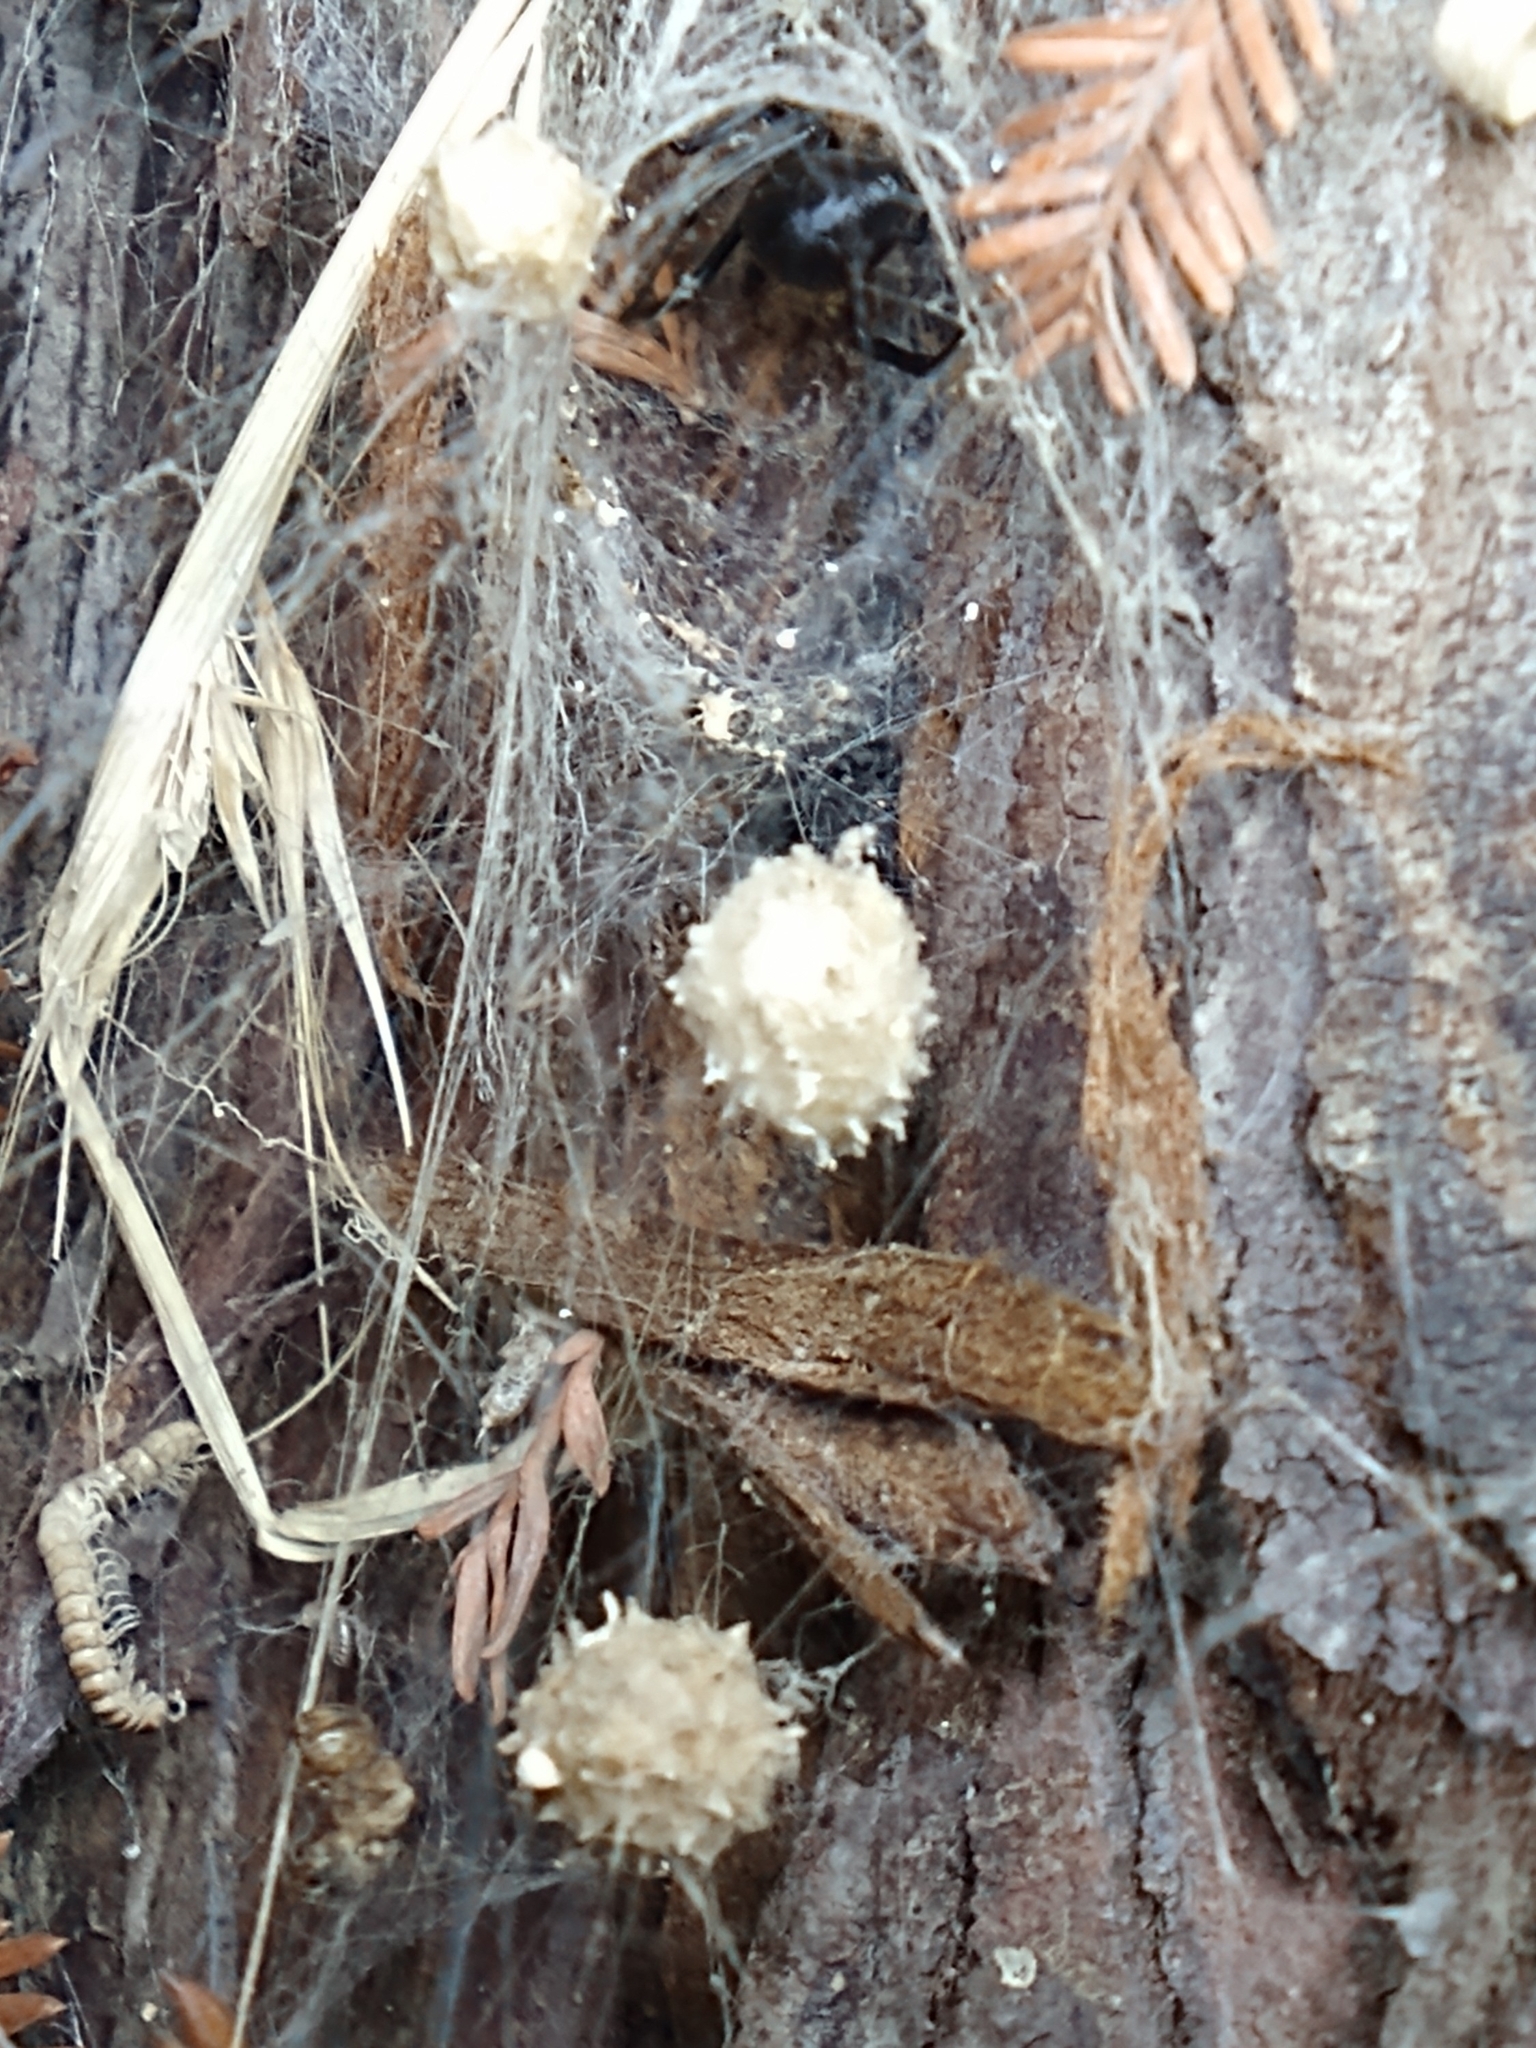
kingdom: Animalia
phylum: Arthropoda
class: Arachnida
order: Araneae
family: Theridiidae
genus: Latrodectus
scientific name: Latrodectus geometricus
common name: Brown widow spider
